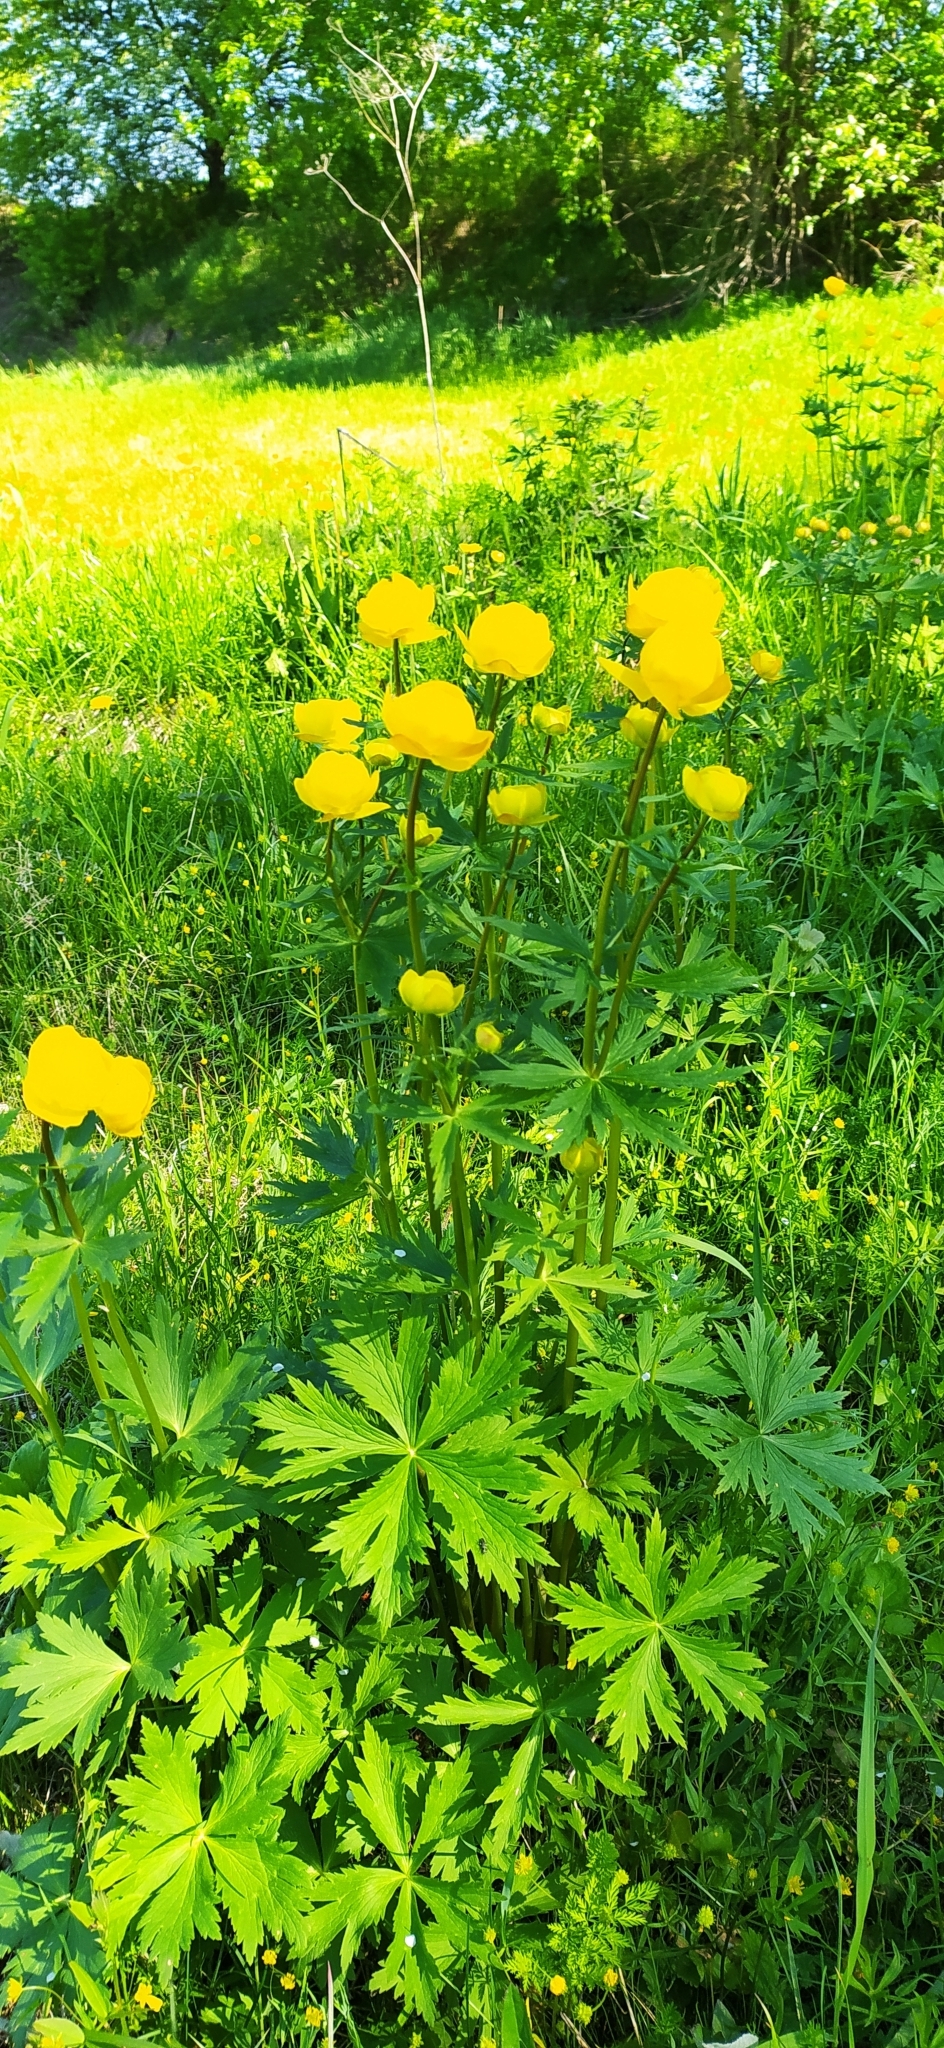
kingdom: Plantae
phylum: Tracheophyta
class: Magnoliopsida
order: Ranunculales
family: Ranunculaceae
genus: Trollius
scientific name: Trollius europaeus
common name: European globeflower
